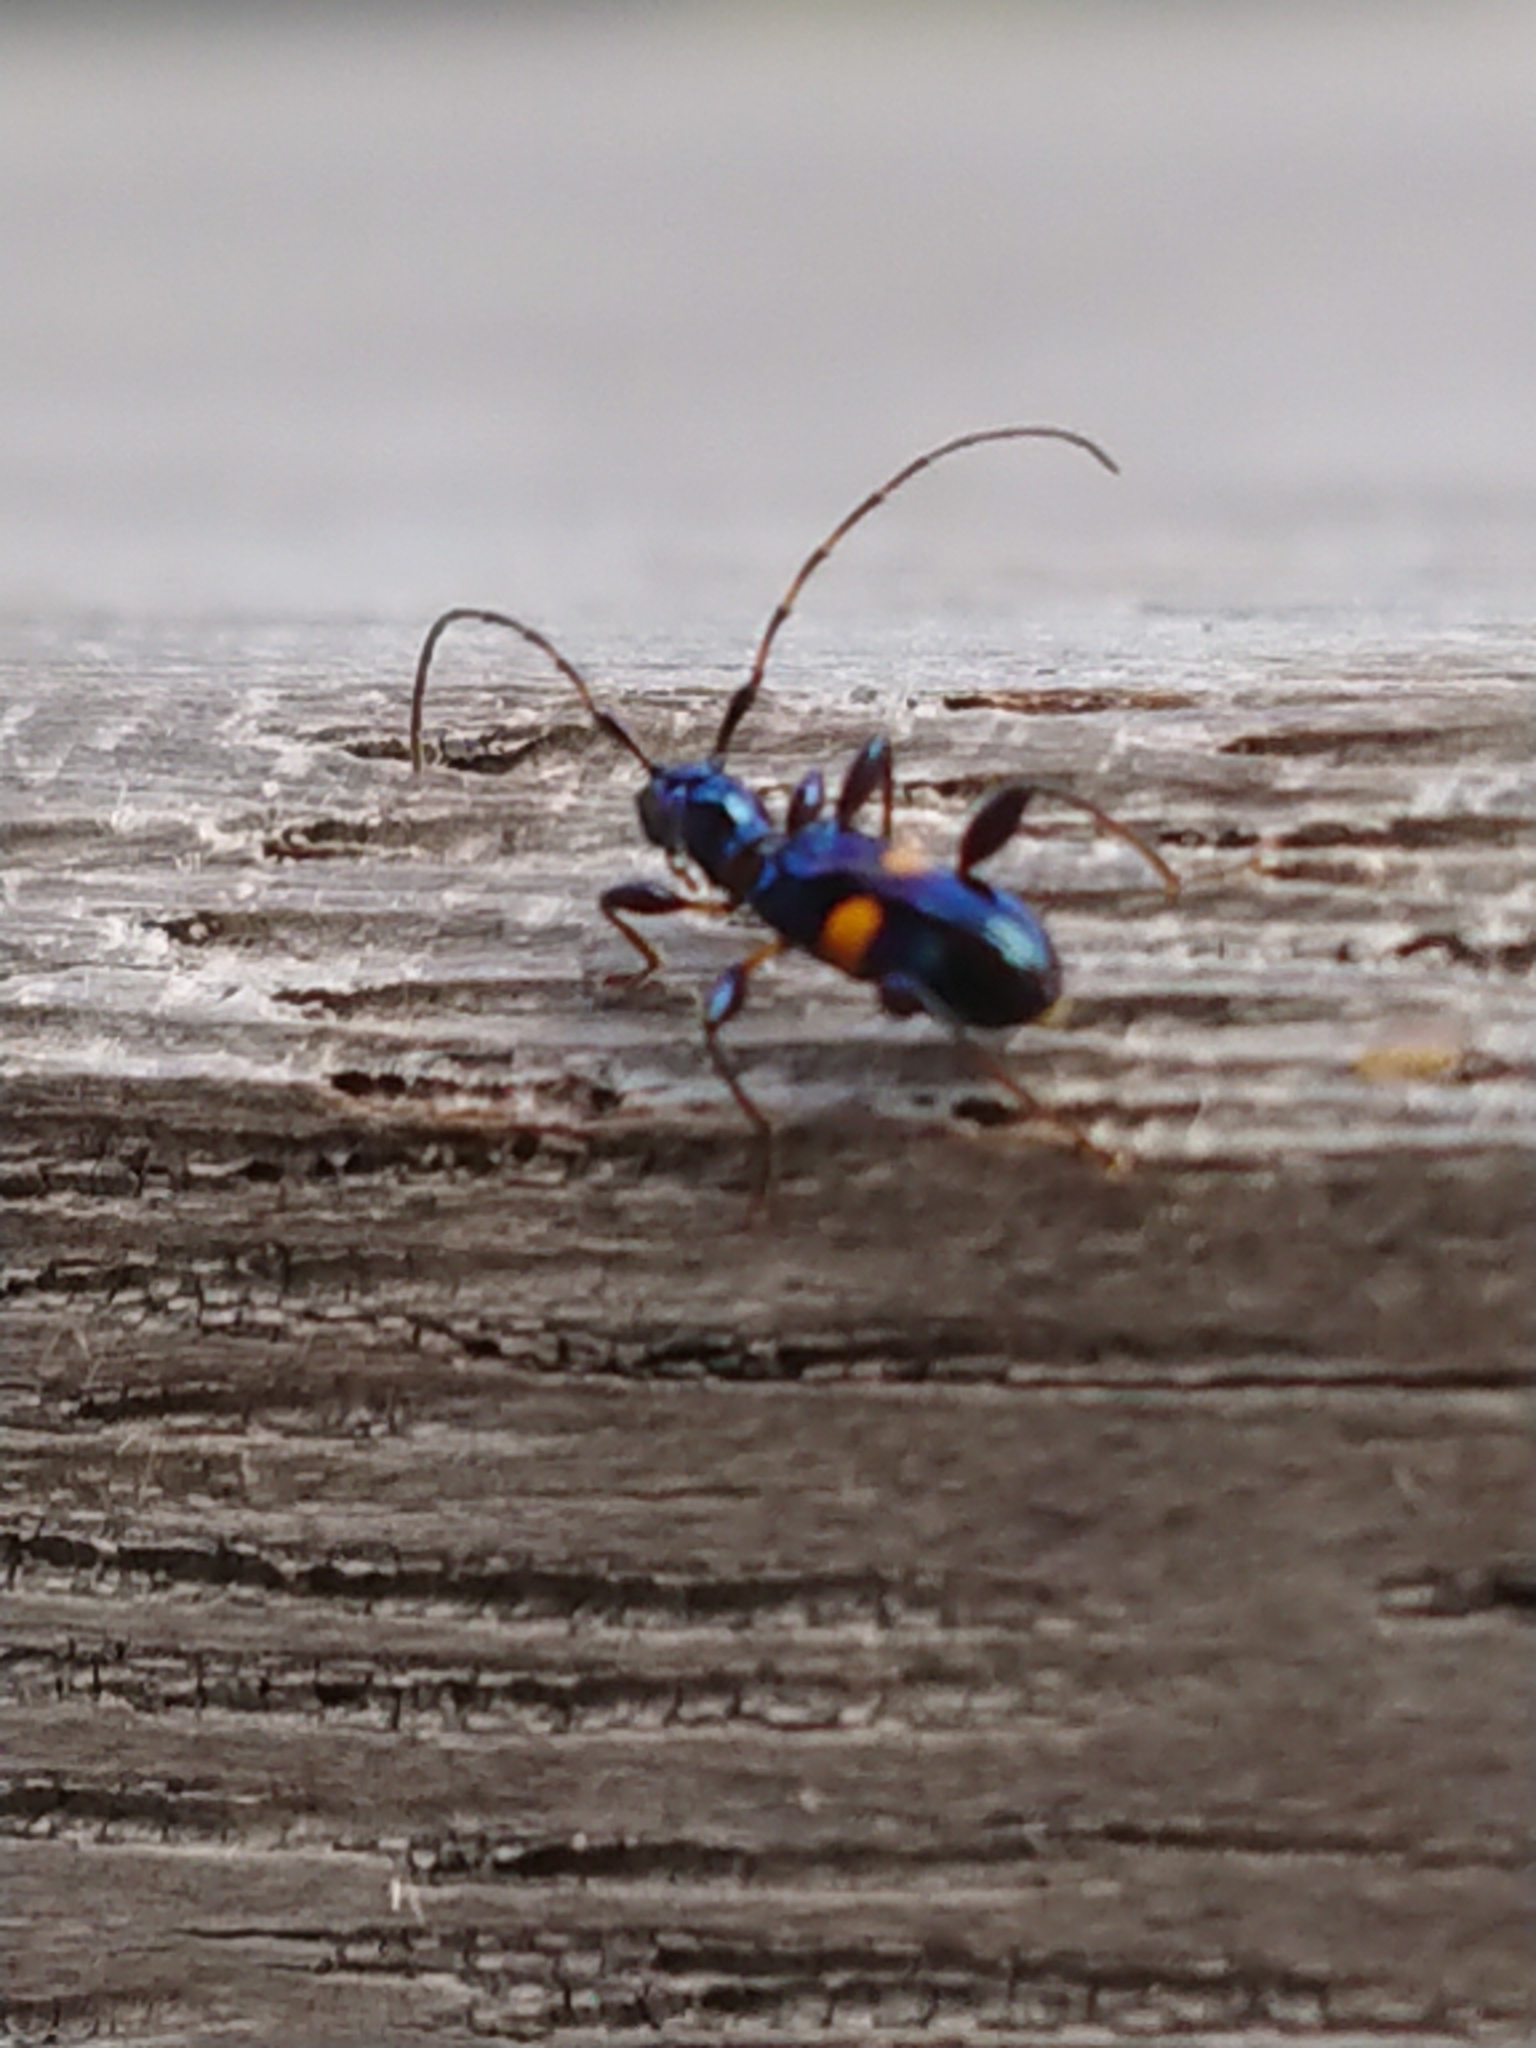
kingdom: Animalia
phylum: Arthropoda
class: Insecta
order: Coleoptera
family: Cerambycidae
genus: Zorion
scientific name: Zorion guttigerum
